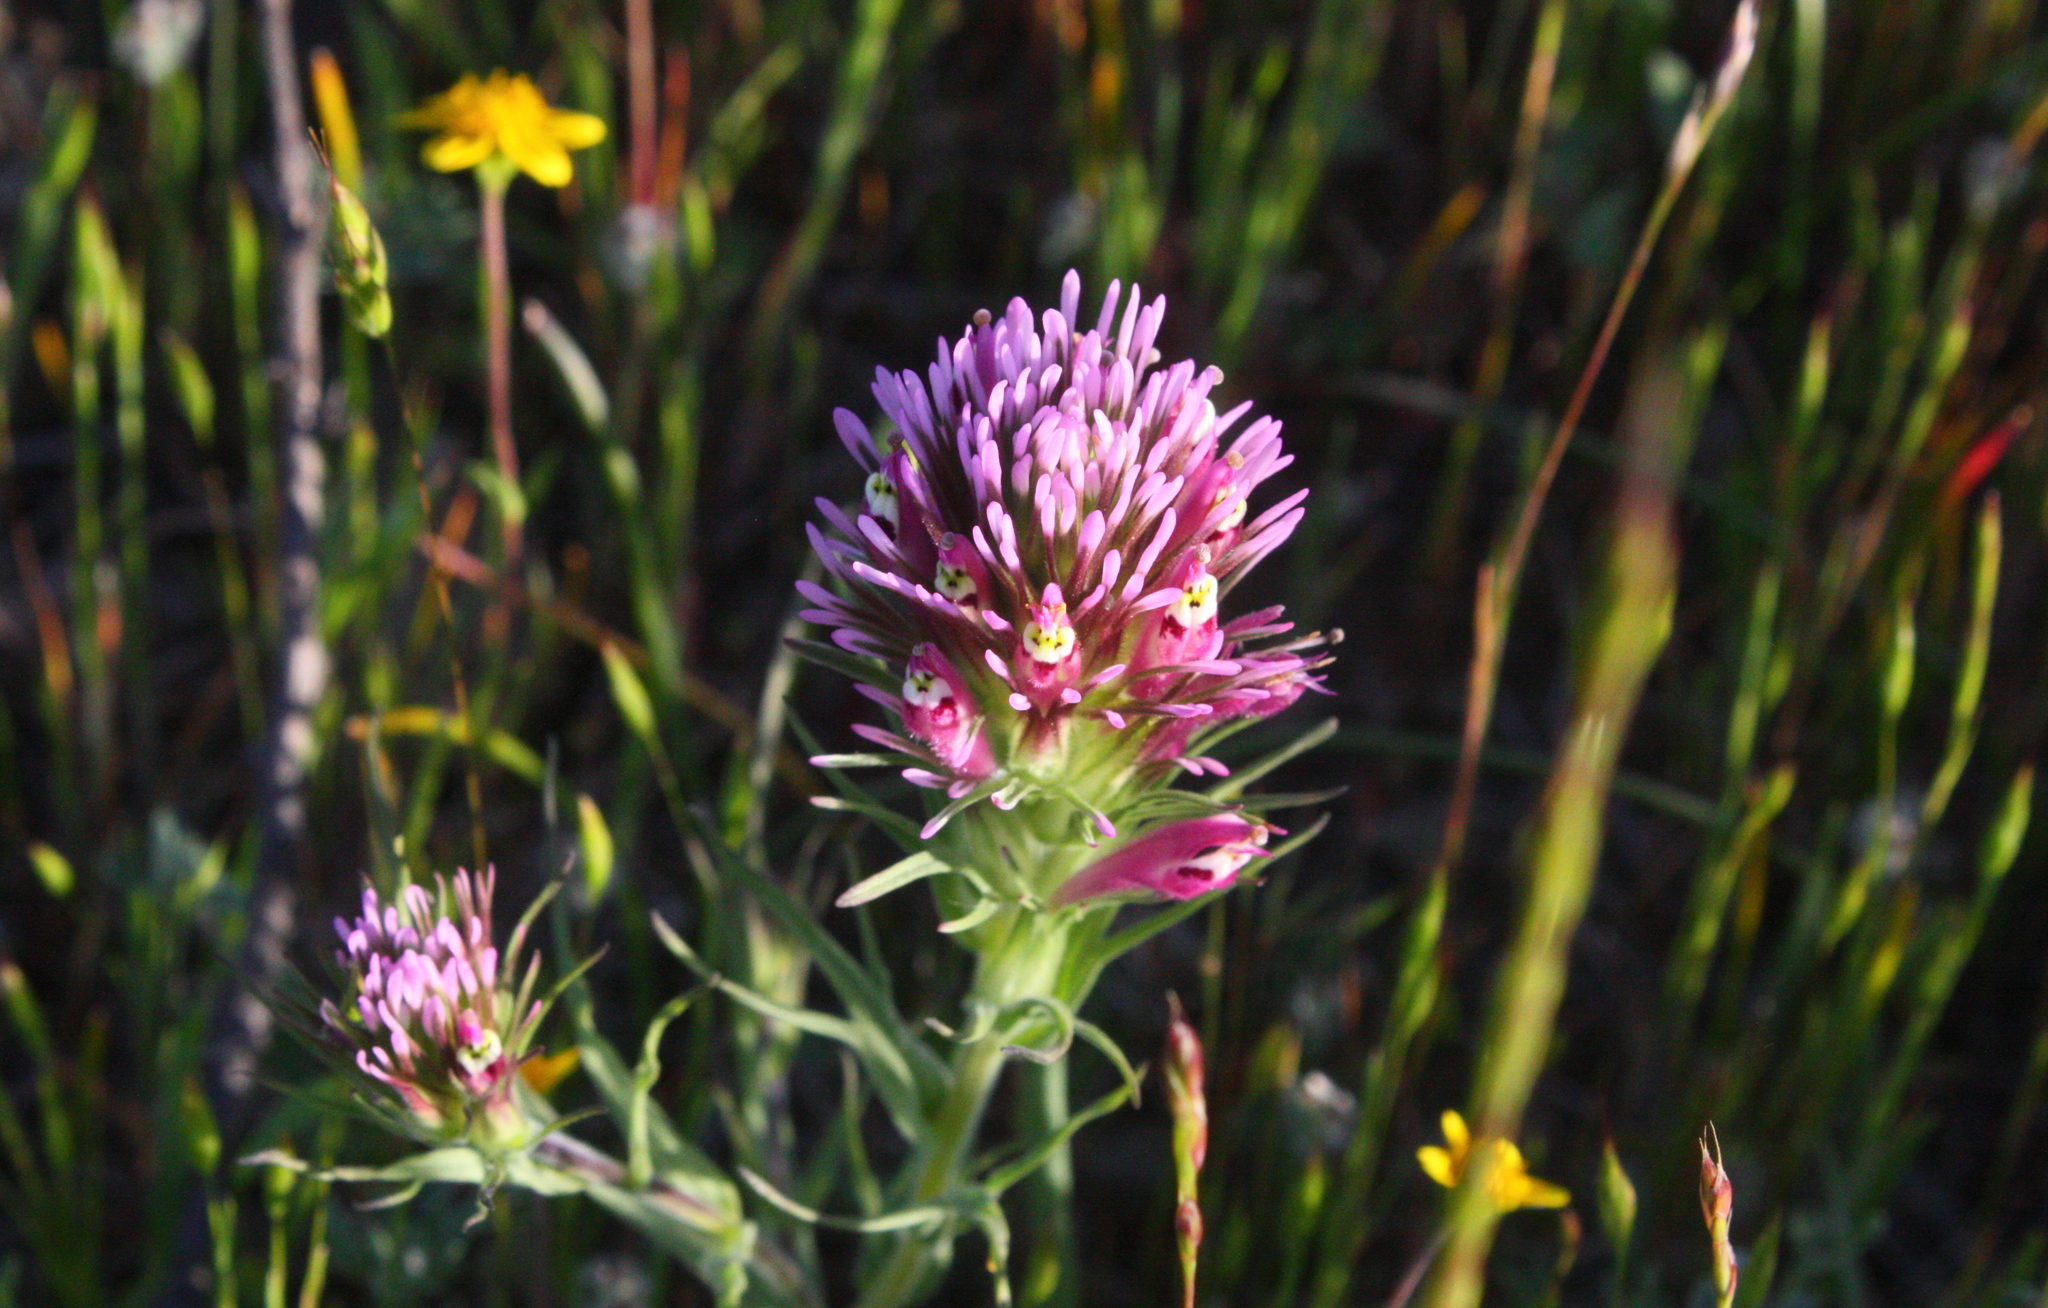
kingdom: Plantae
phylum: Tracheophyta
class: Magnoliopsida
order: Lamiales
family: Orobanchaceae
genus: Castilleja
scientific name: Castilleja densiflora
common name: Dense-flower indian paintbrush
